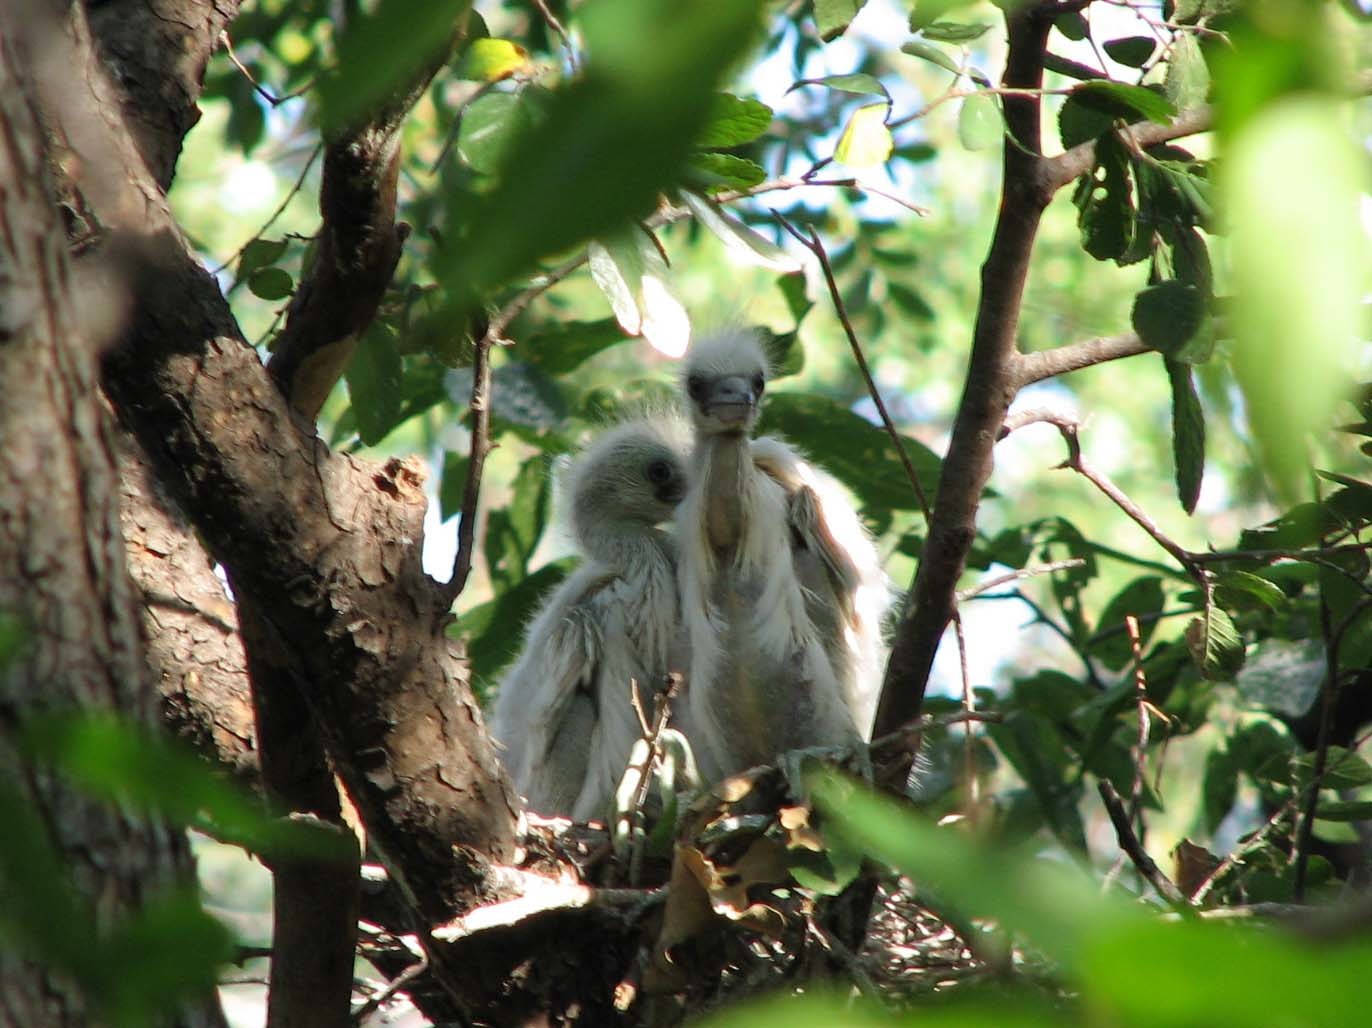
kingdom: Animalia
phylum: Chordata
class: Aves
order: Pelecaniformes
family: Ardeidae
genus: Bubulcus
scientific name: Bubulcus ibis
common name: Cattle egret
